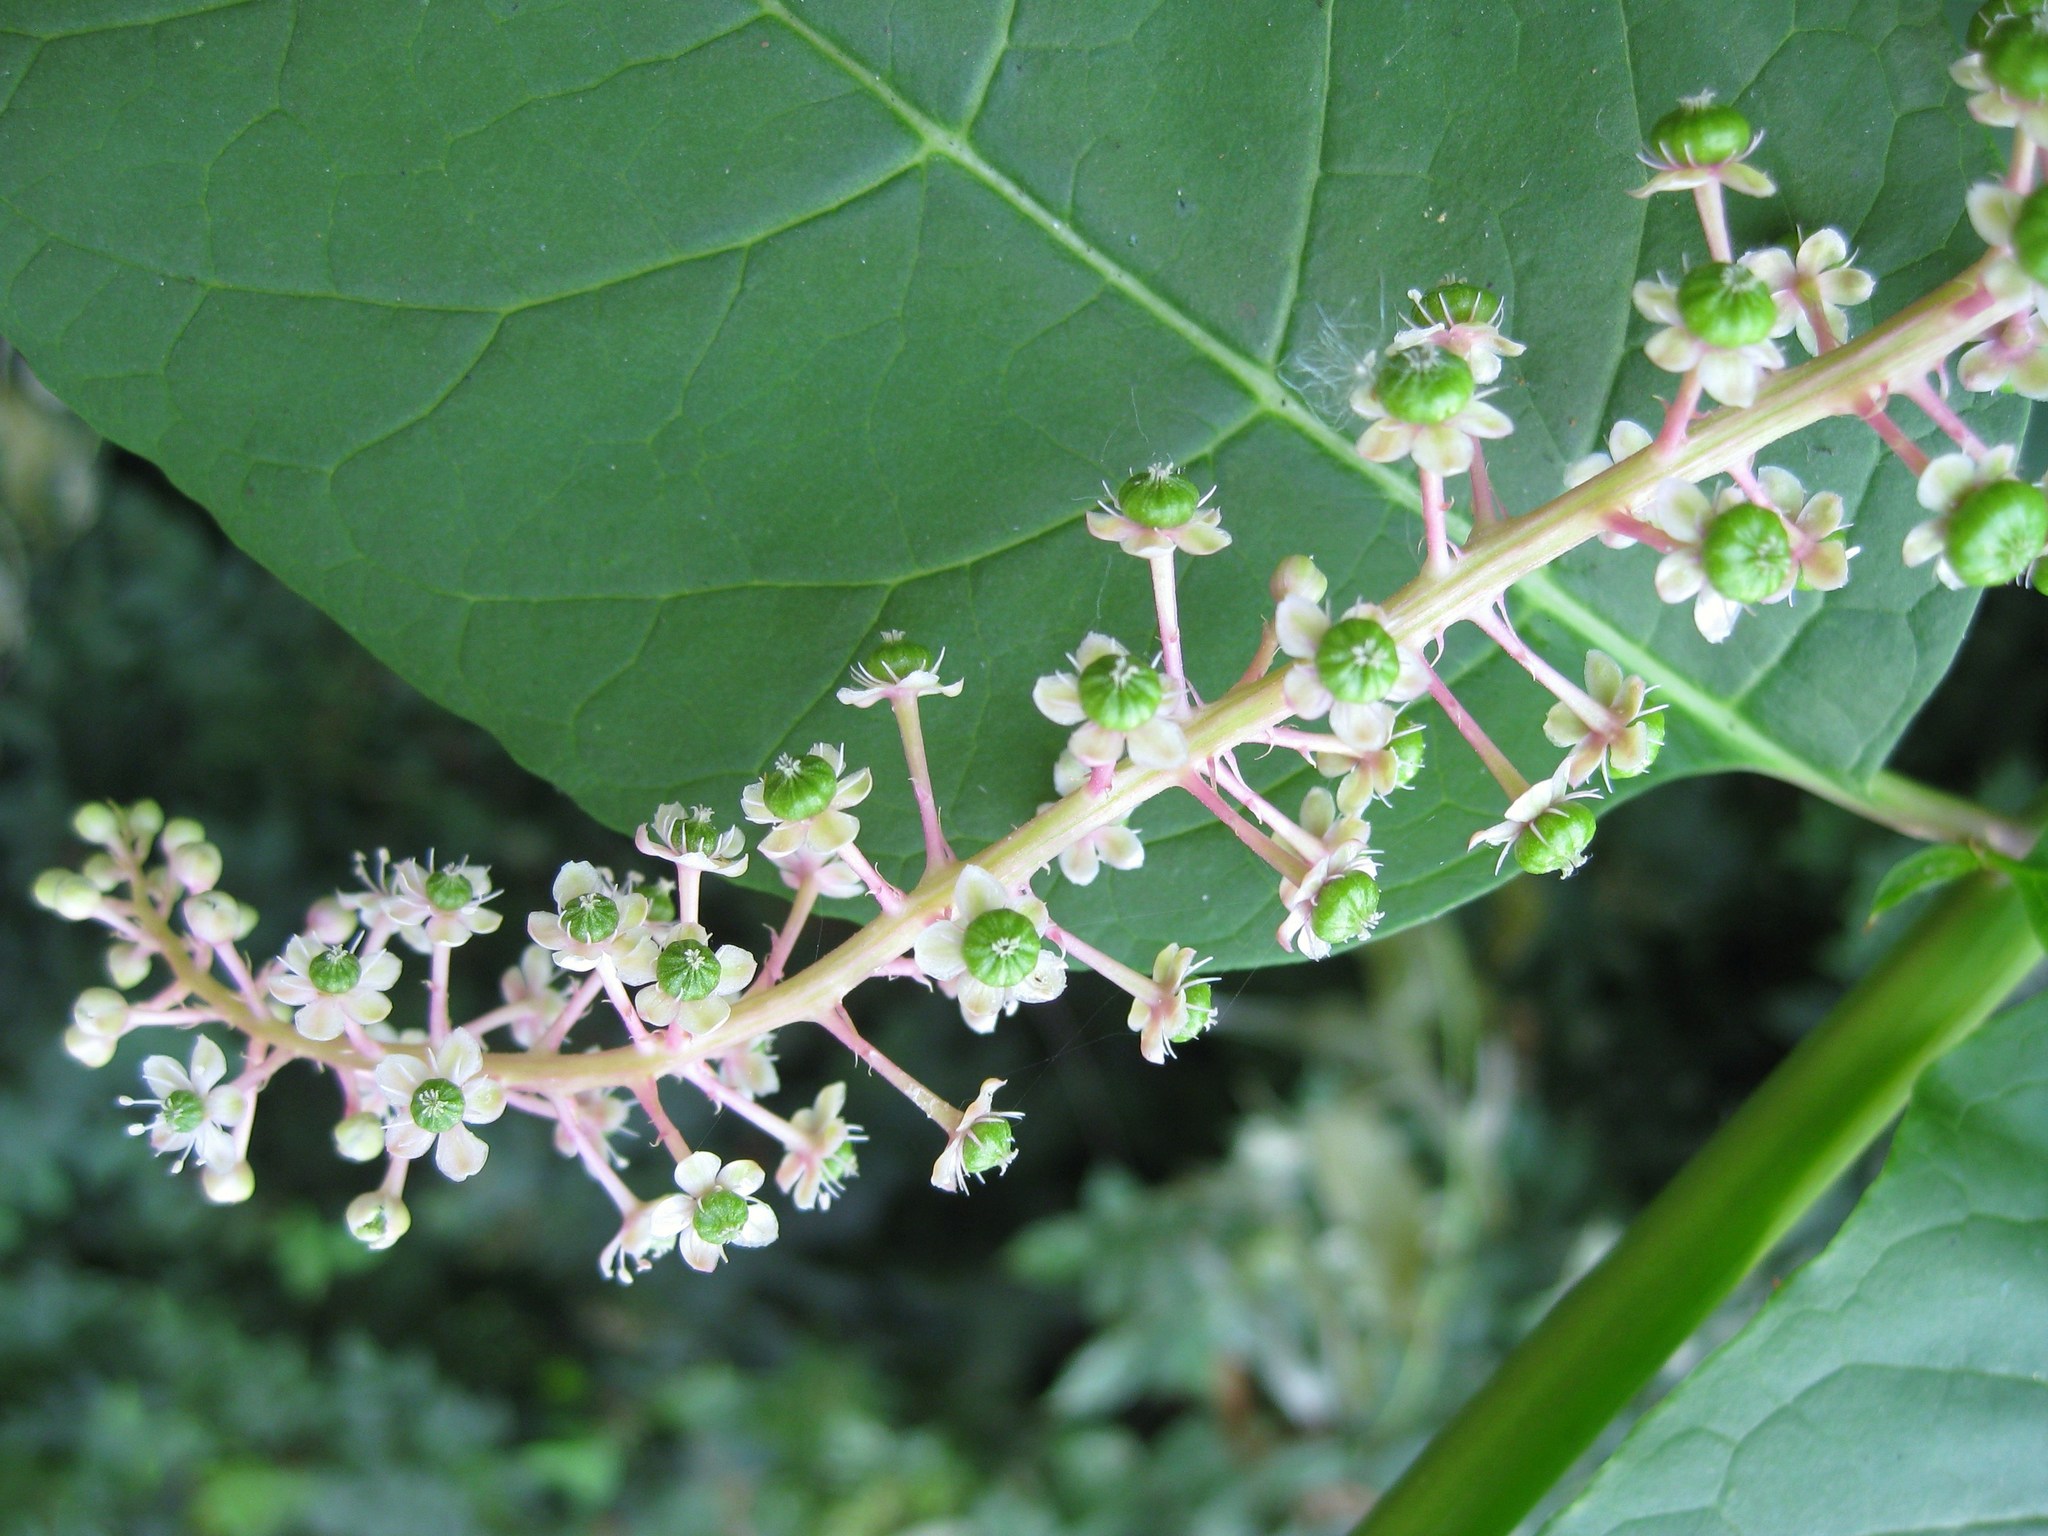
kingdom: Plantae
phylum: Tracheophyta
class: Magnoliopsida
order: Caryophyllales
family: Phytolaccaceae
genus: Phytolacca
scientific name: Phytolacca americana
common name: American pokeweed
